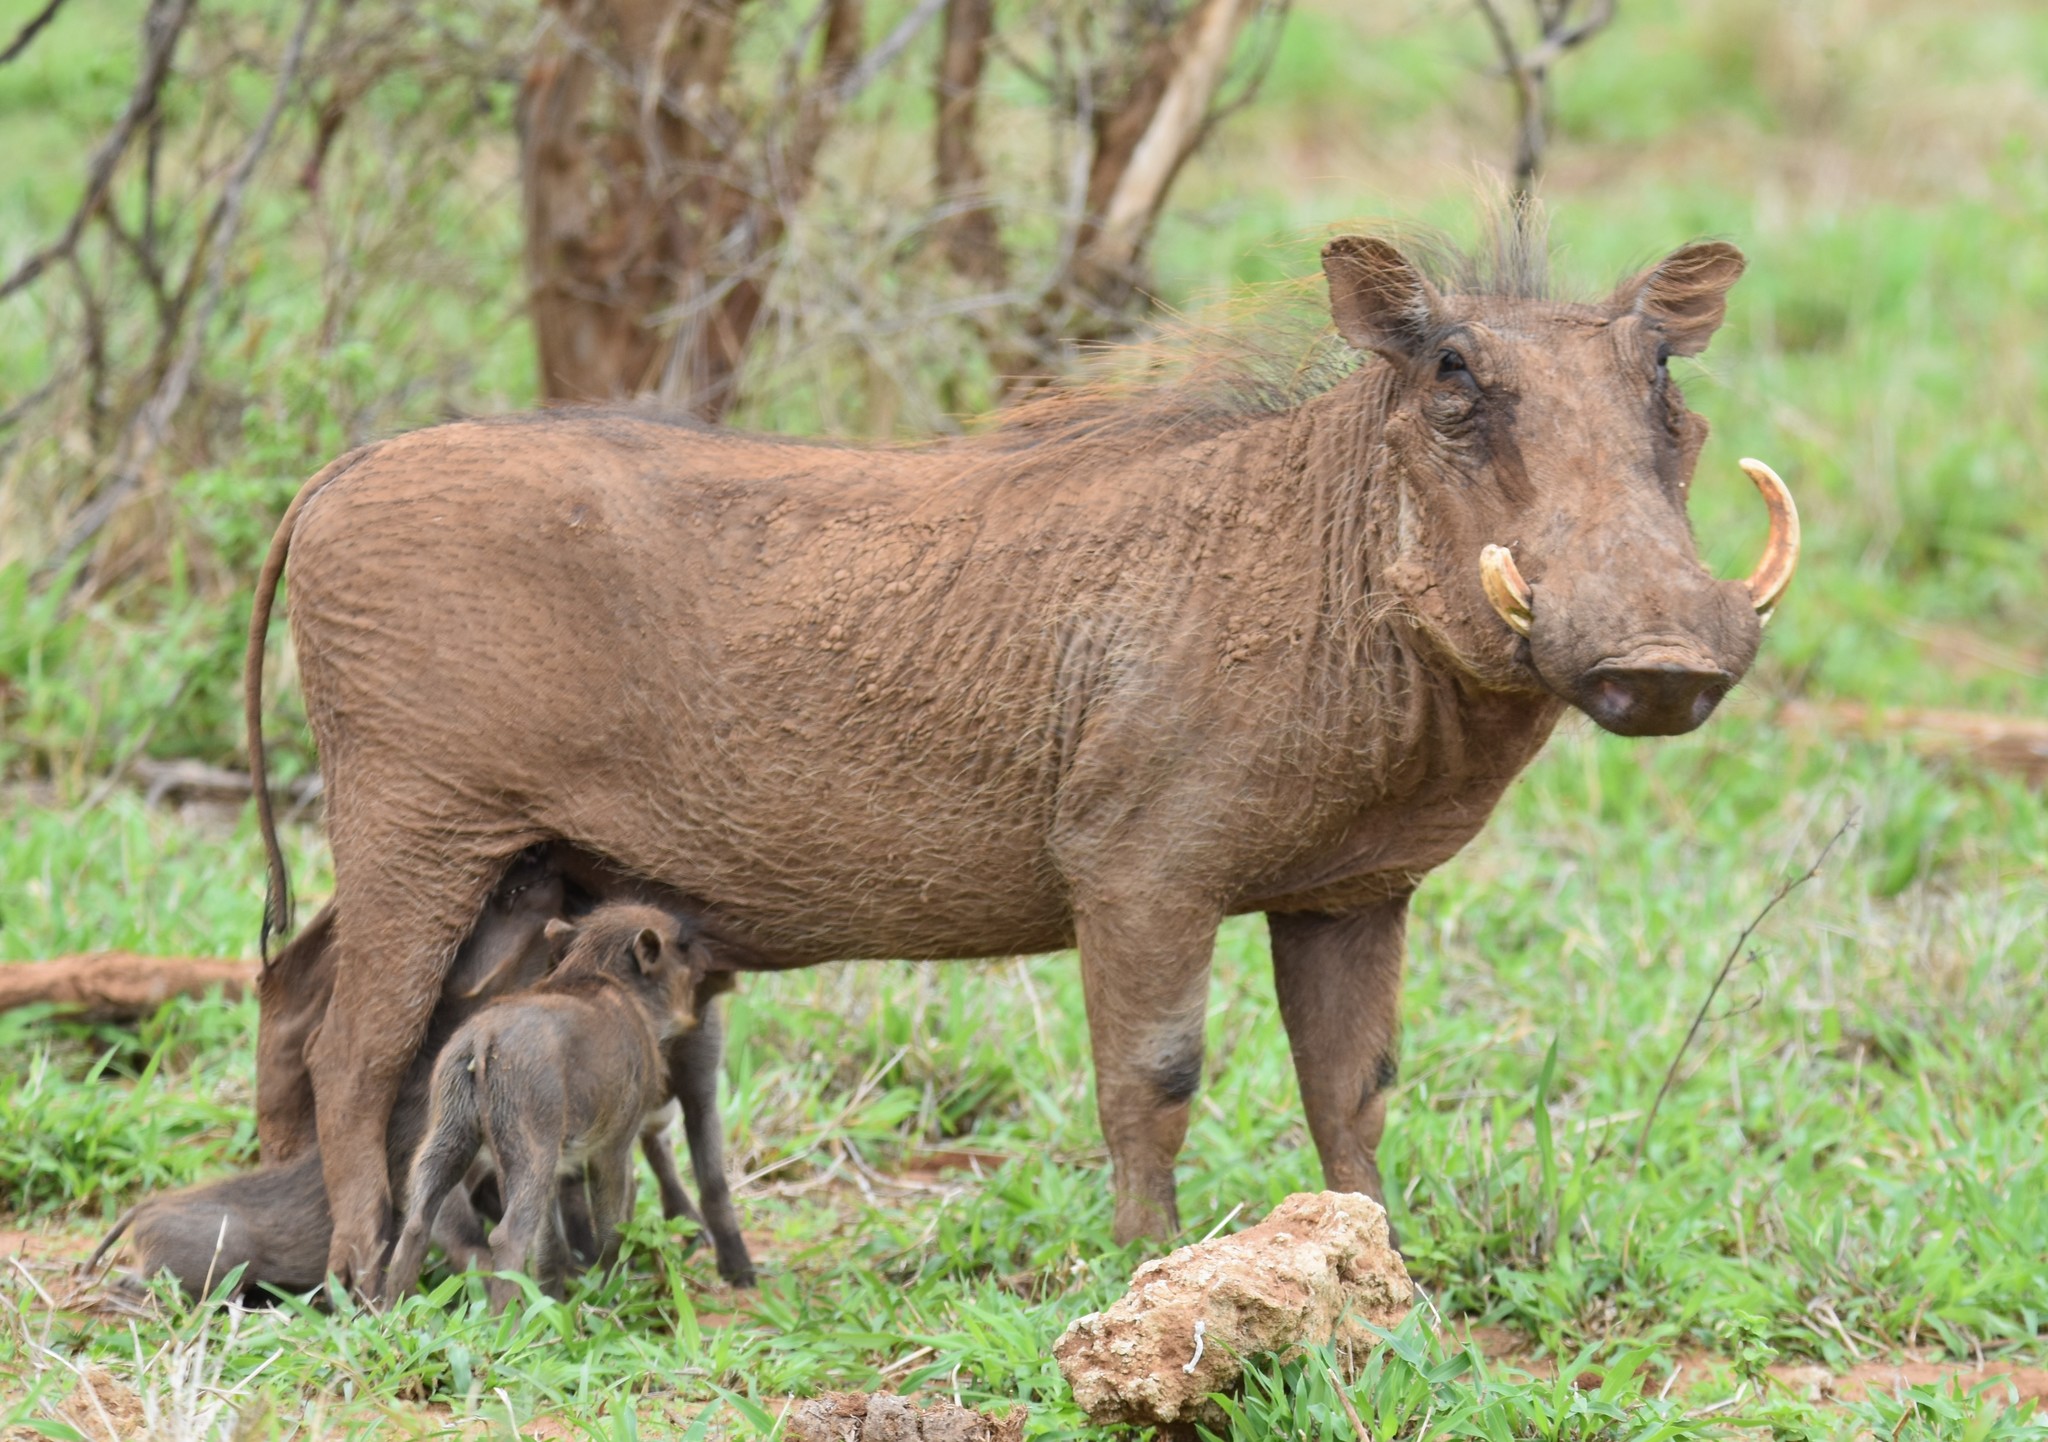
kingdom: Animalia
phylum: Chordata
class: Mammalia
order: Artiodactyla
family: Suidae
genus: Phacochoerus
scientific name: Phacochoerus africanus
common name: Common warthog
